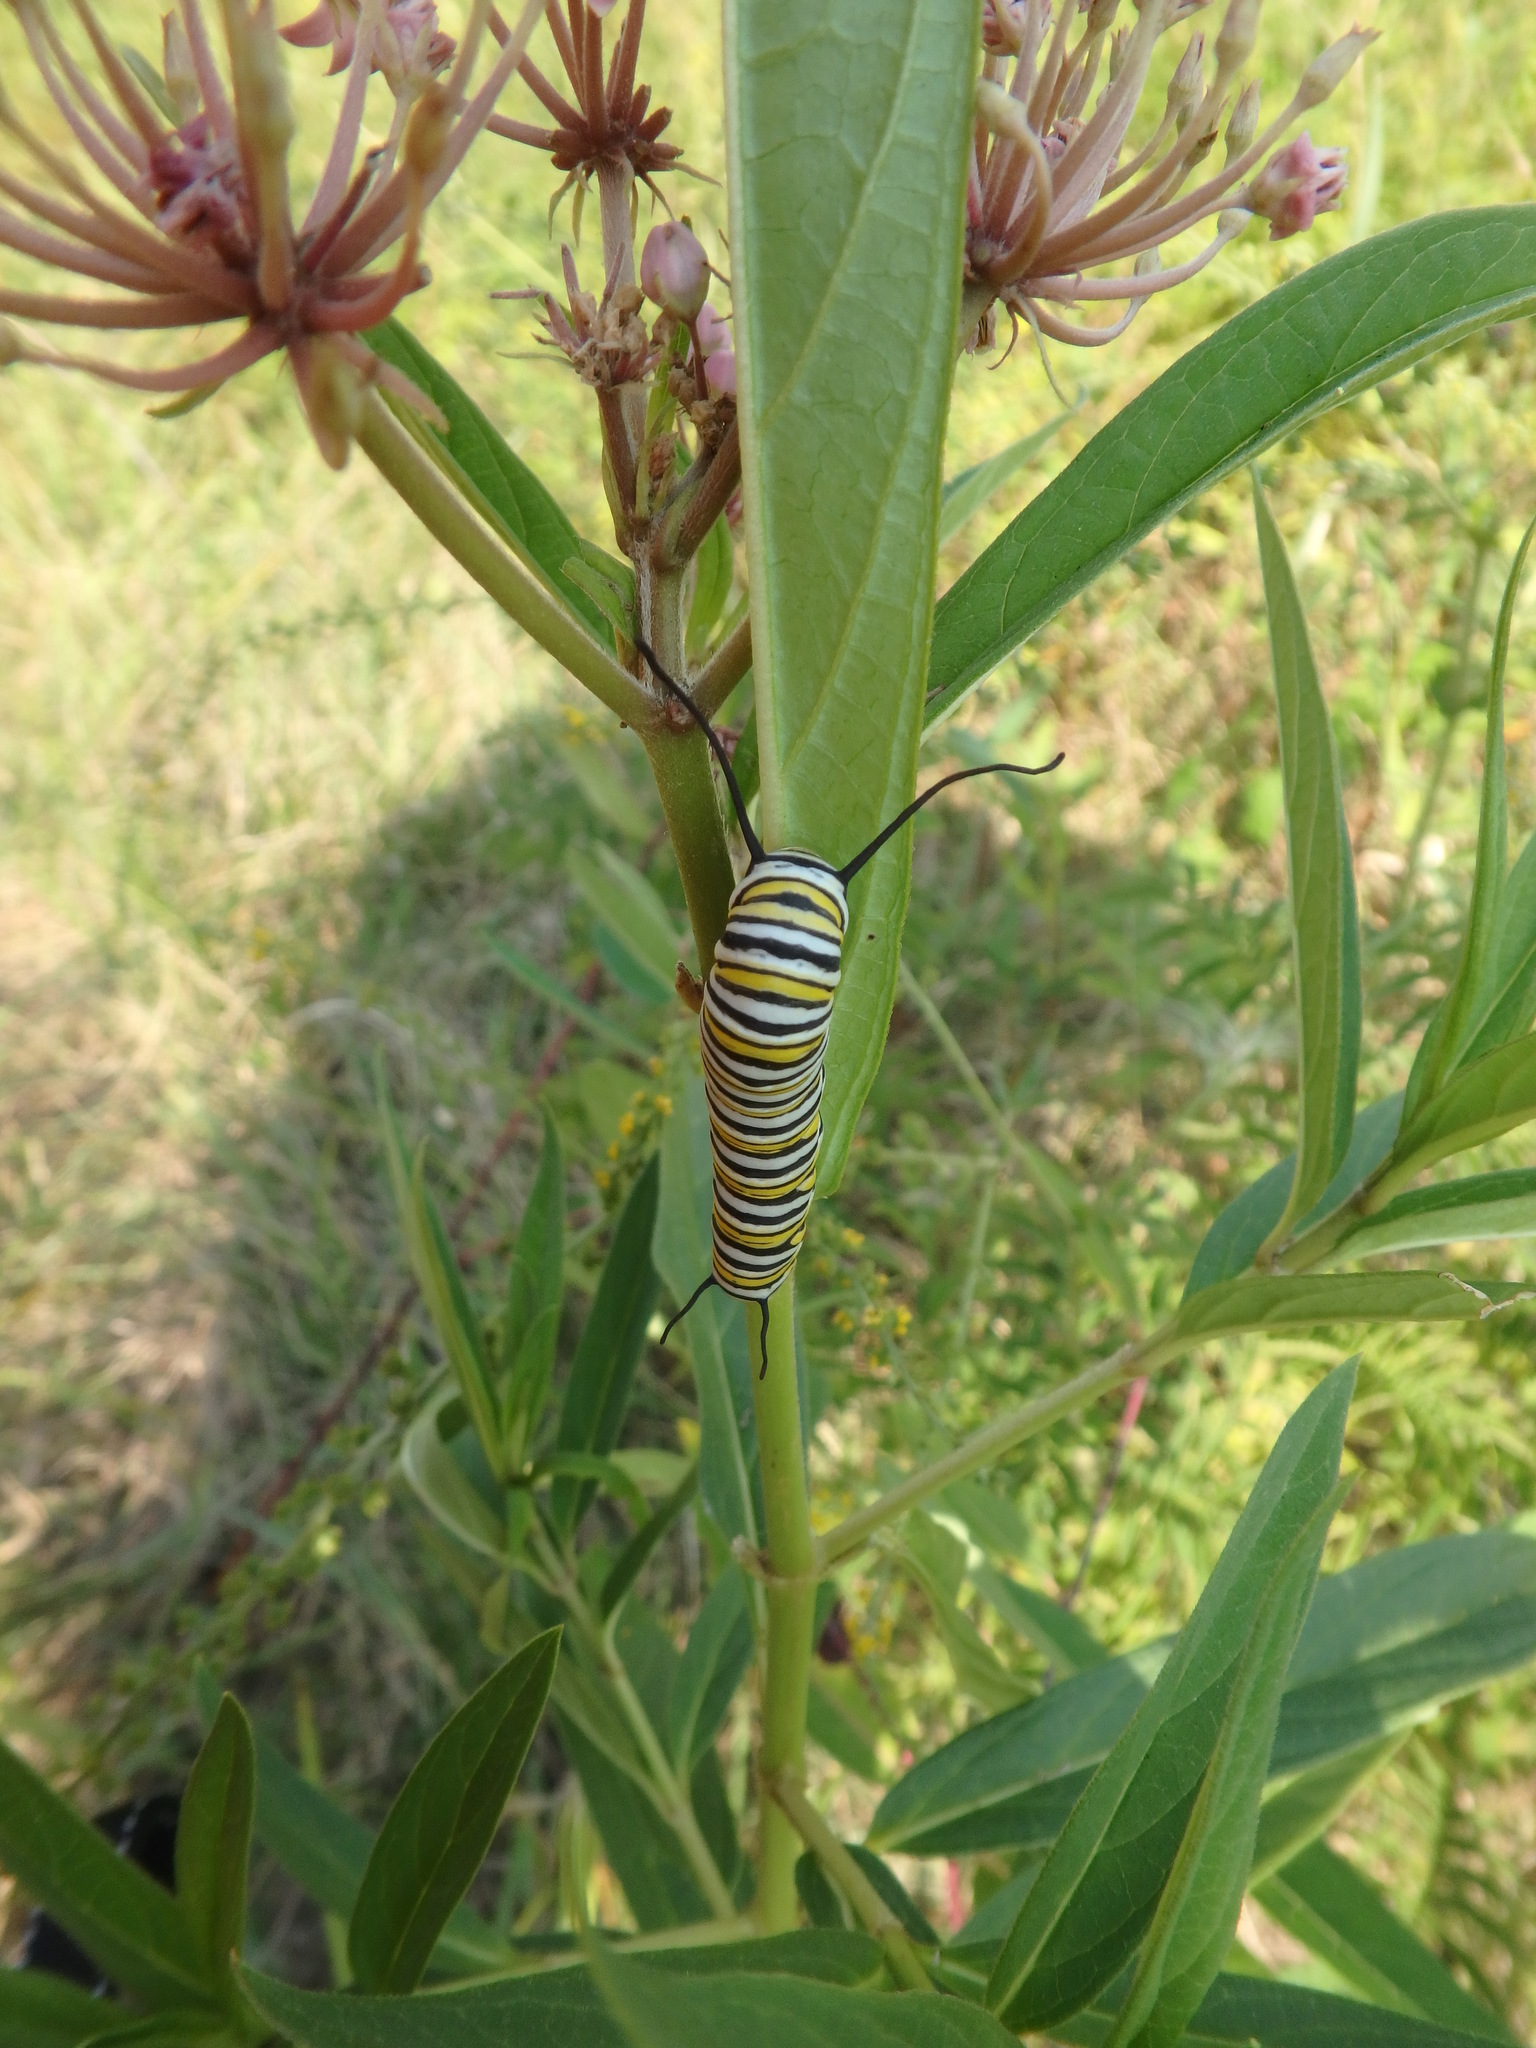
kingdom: Animalia
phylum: Arthropoda
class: Insecta
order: Lepidoptera
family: Nymphalidae
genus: Danaus
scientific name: Danaus plexippus
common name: Monarch
